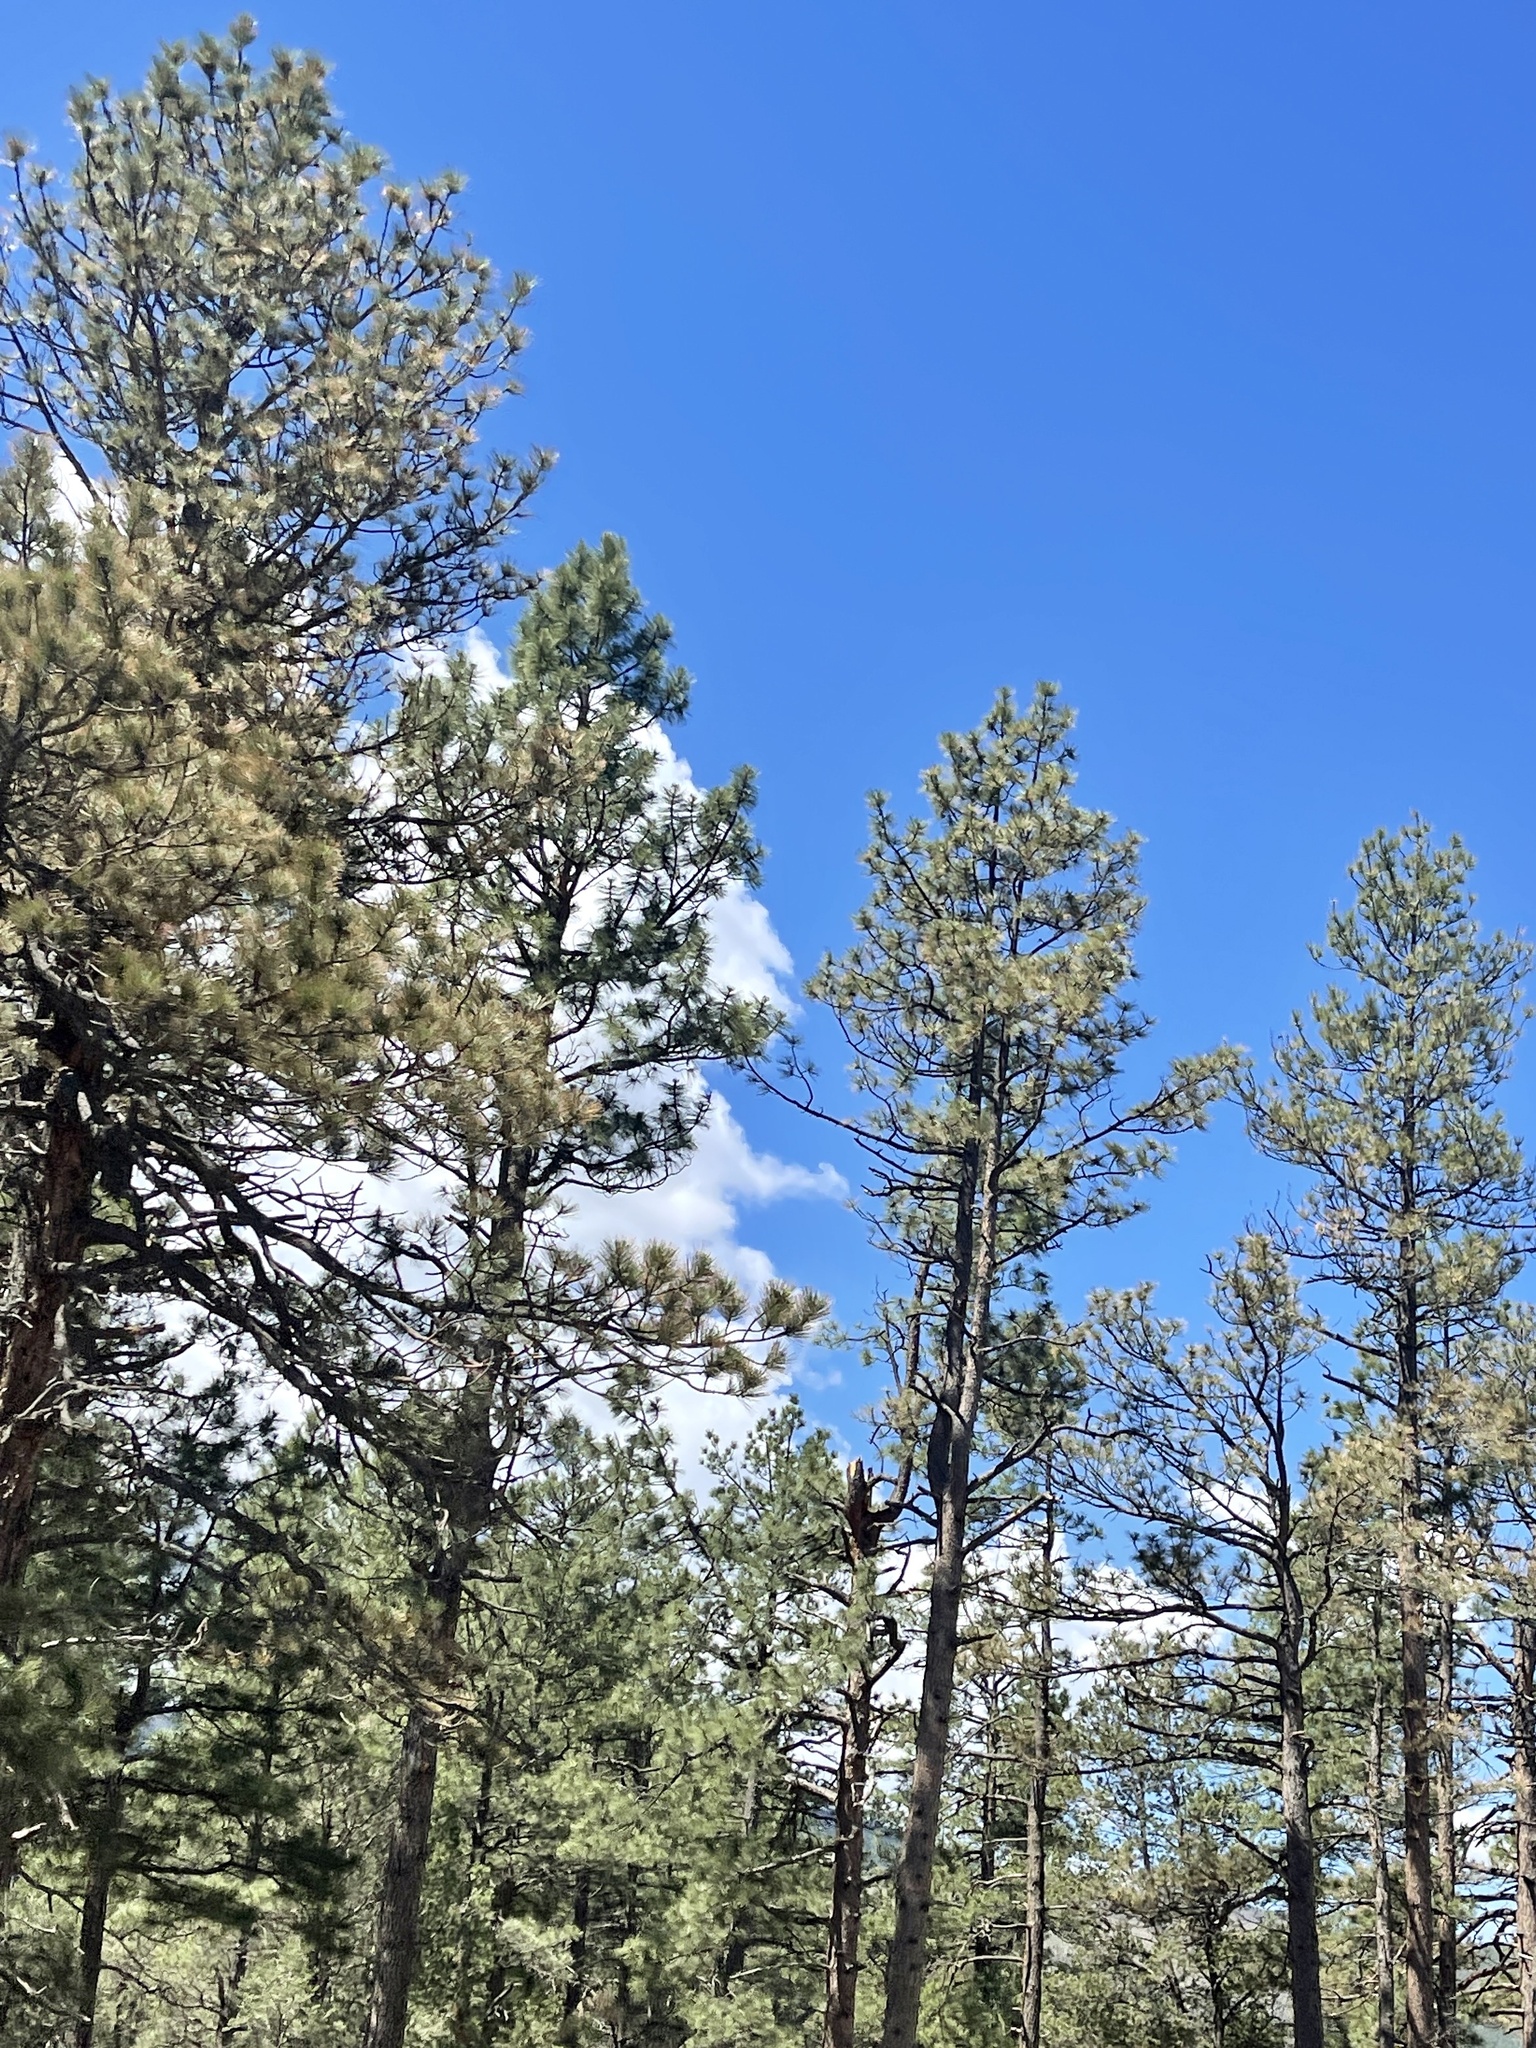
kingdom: Plantae
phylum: Tracheophyta
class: Pinopsida
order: Pinales
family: Pinaceae
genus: Pinus
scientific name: Pinus ponderosa
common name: Western yellow-pine
